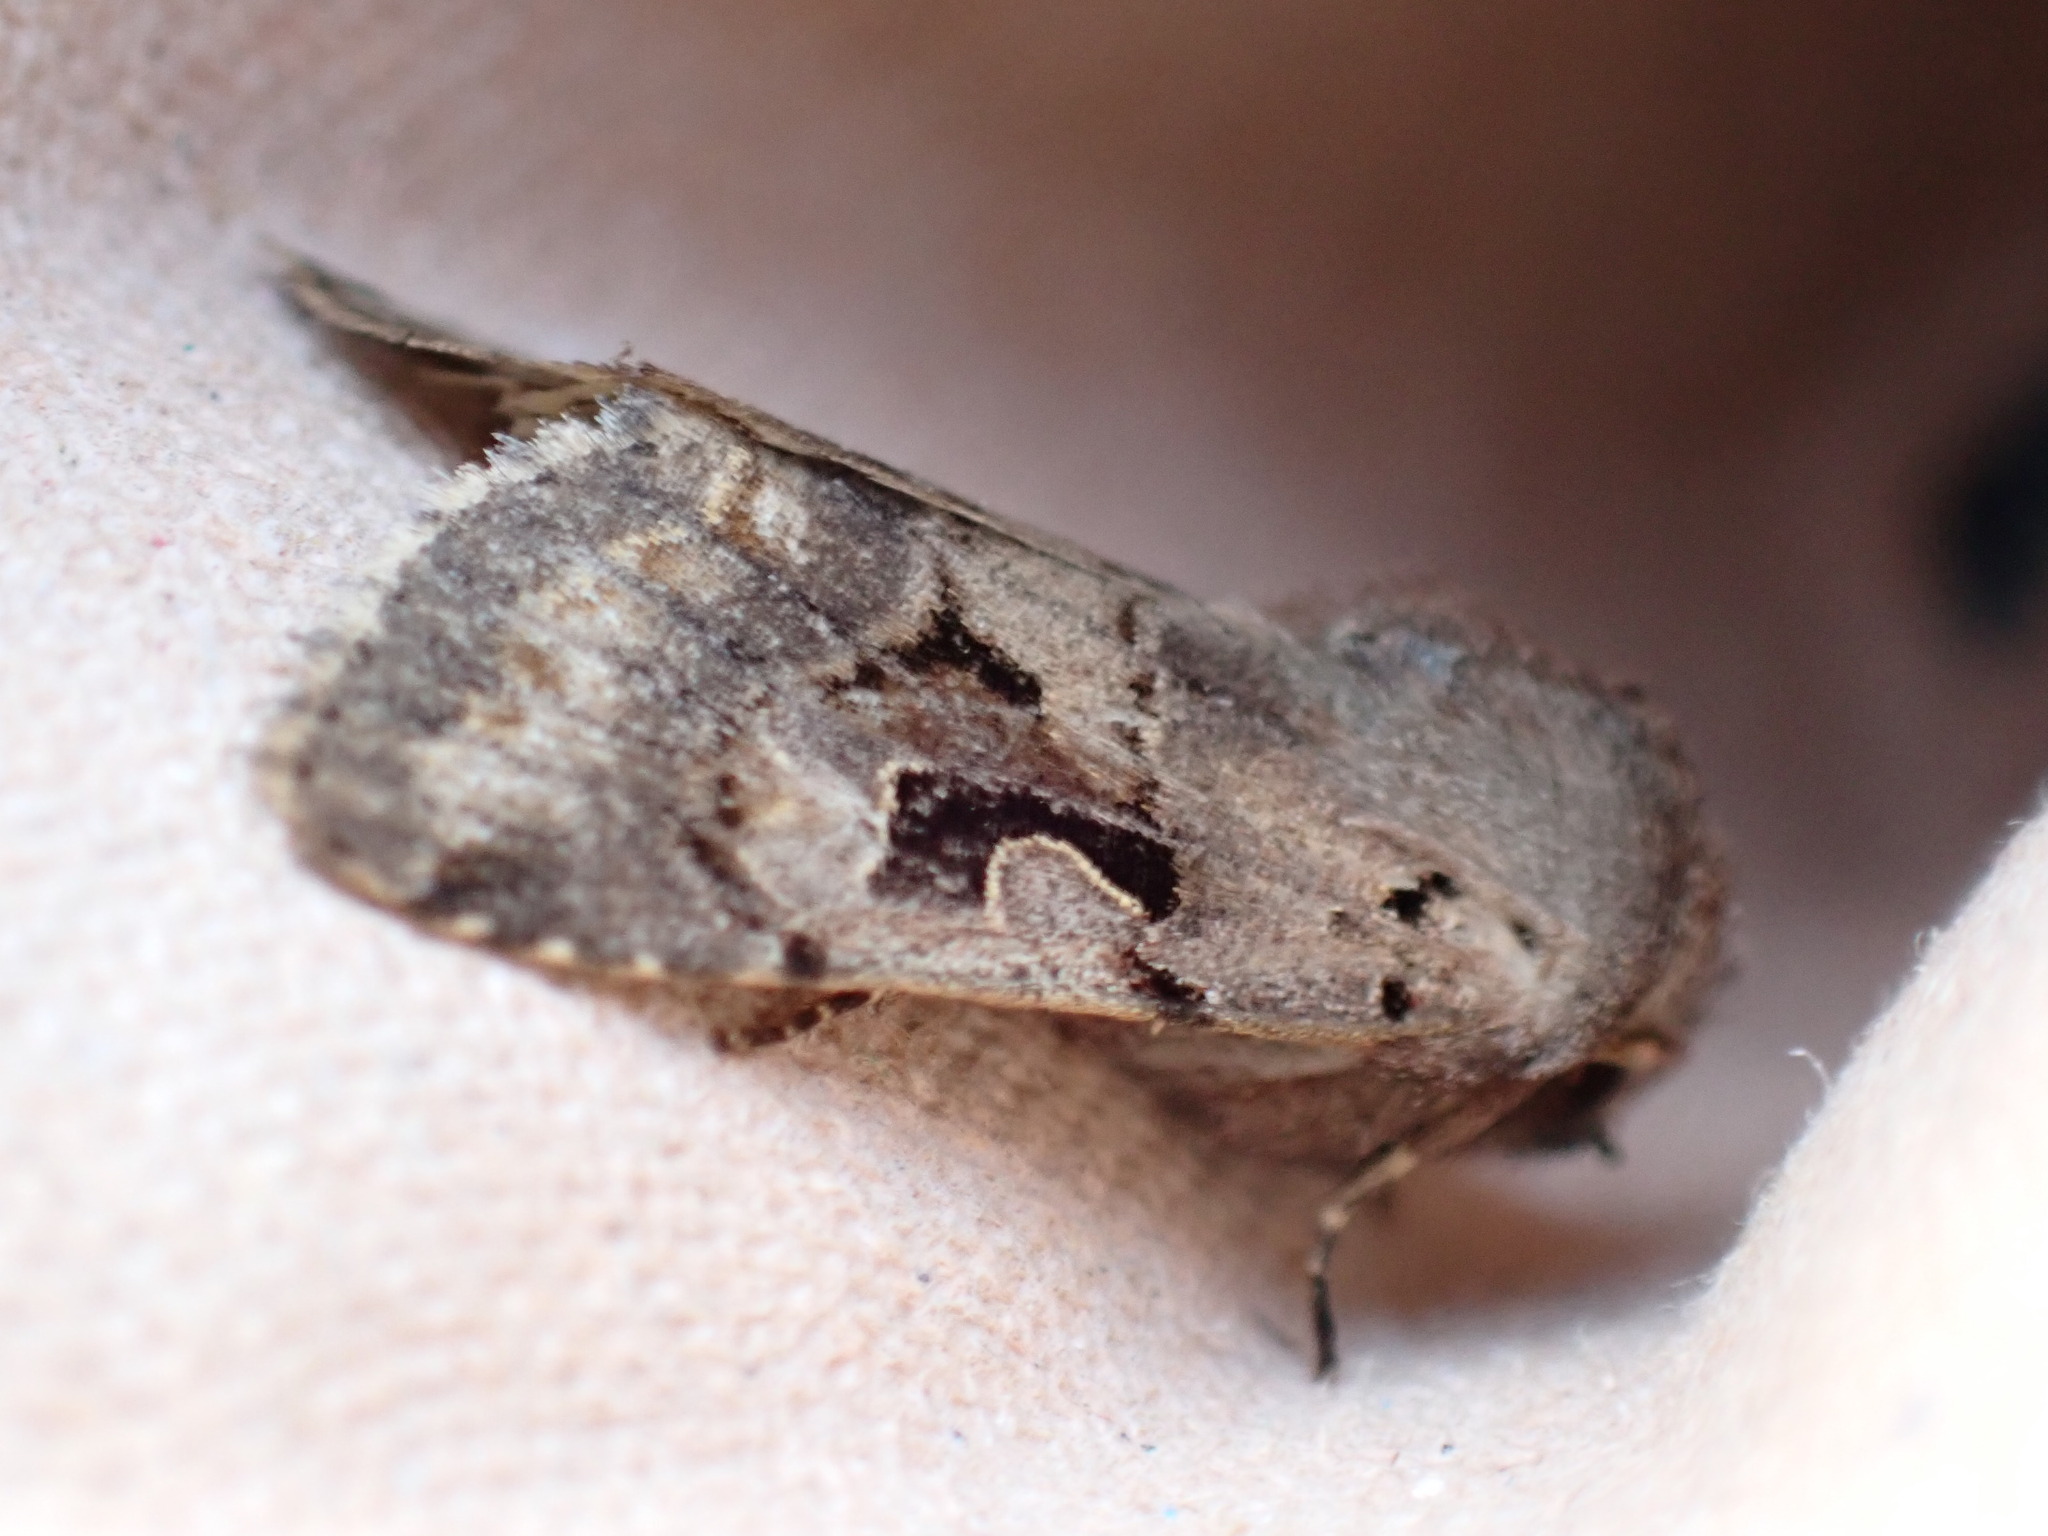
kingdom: Animalia
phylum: Arthropoda
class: Insecta
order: Lepidoptera
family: Noctuidae
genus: Orthosia
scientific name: Orthosia gothica
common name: Hebrew character
